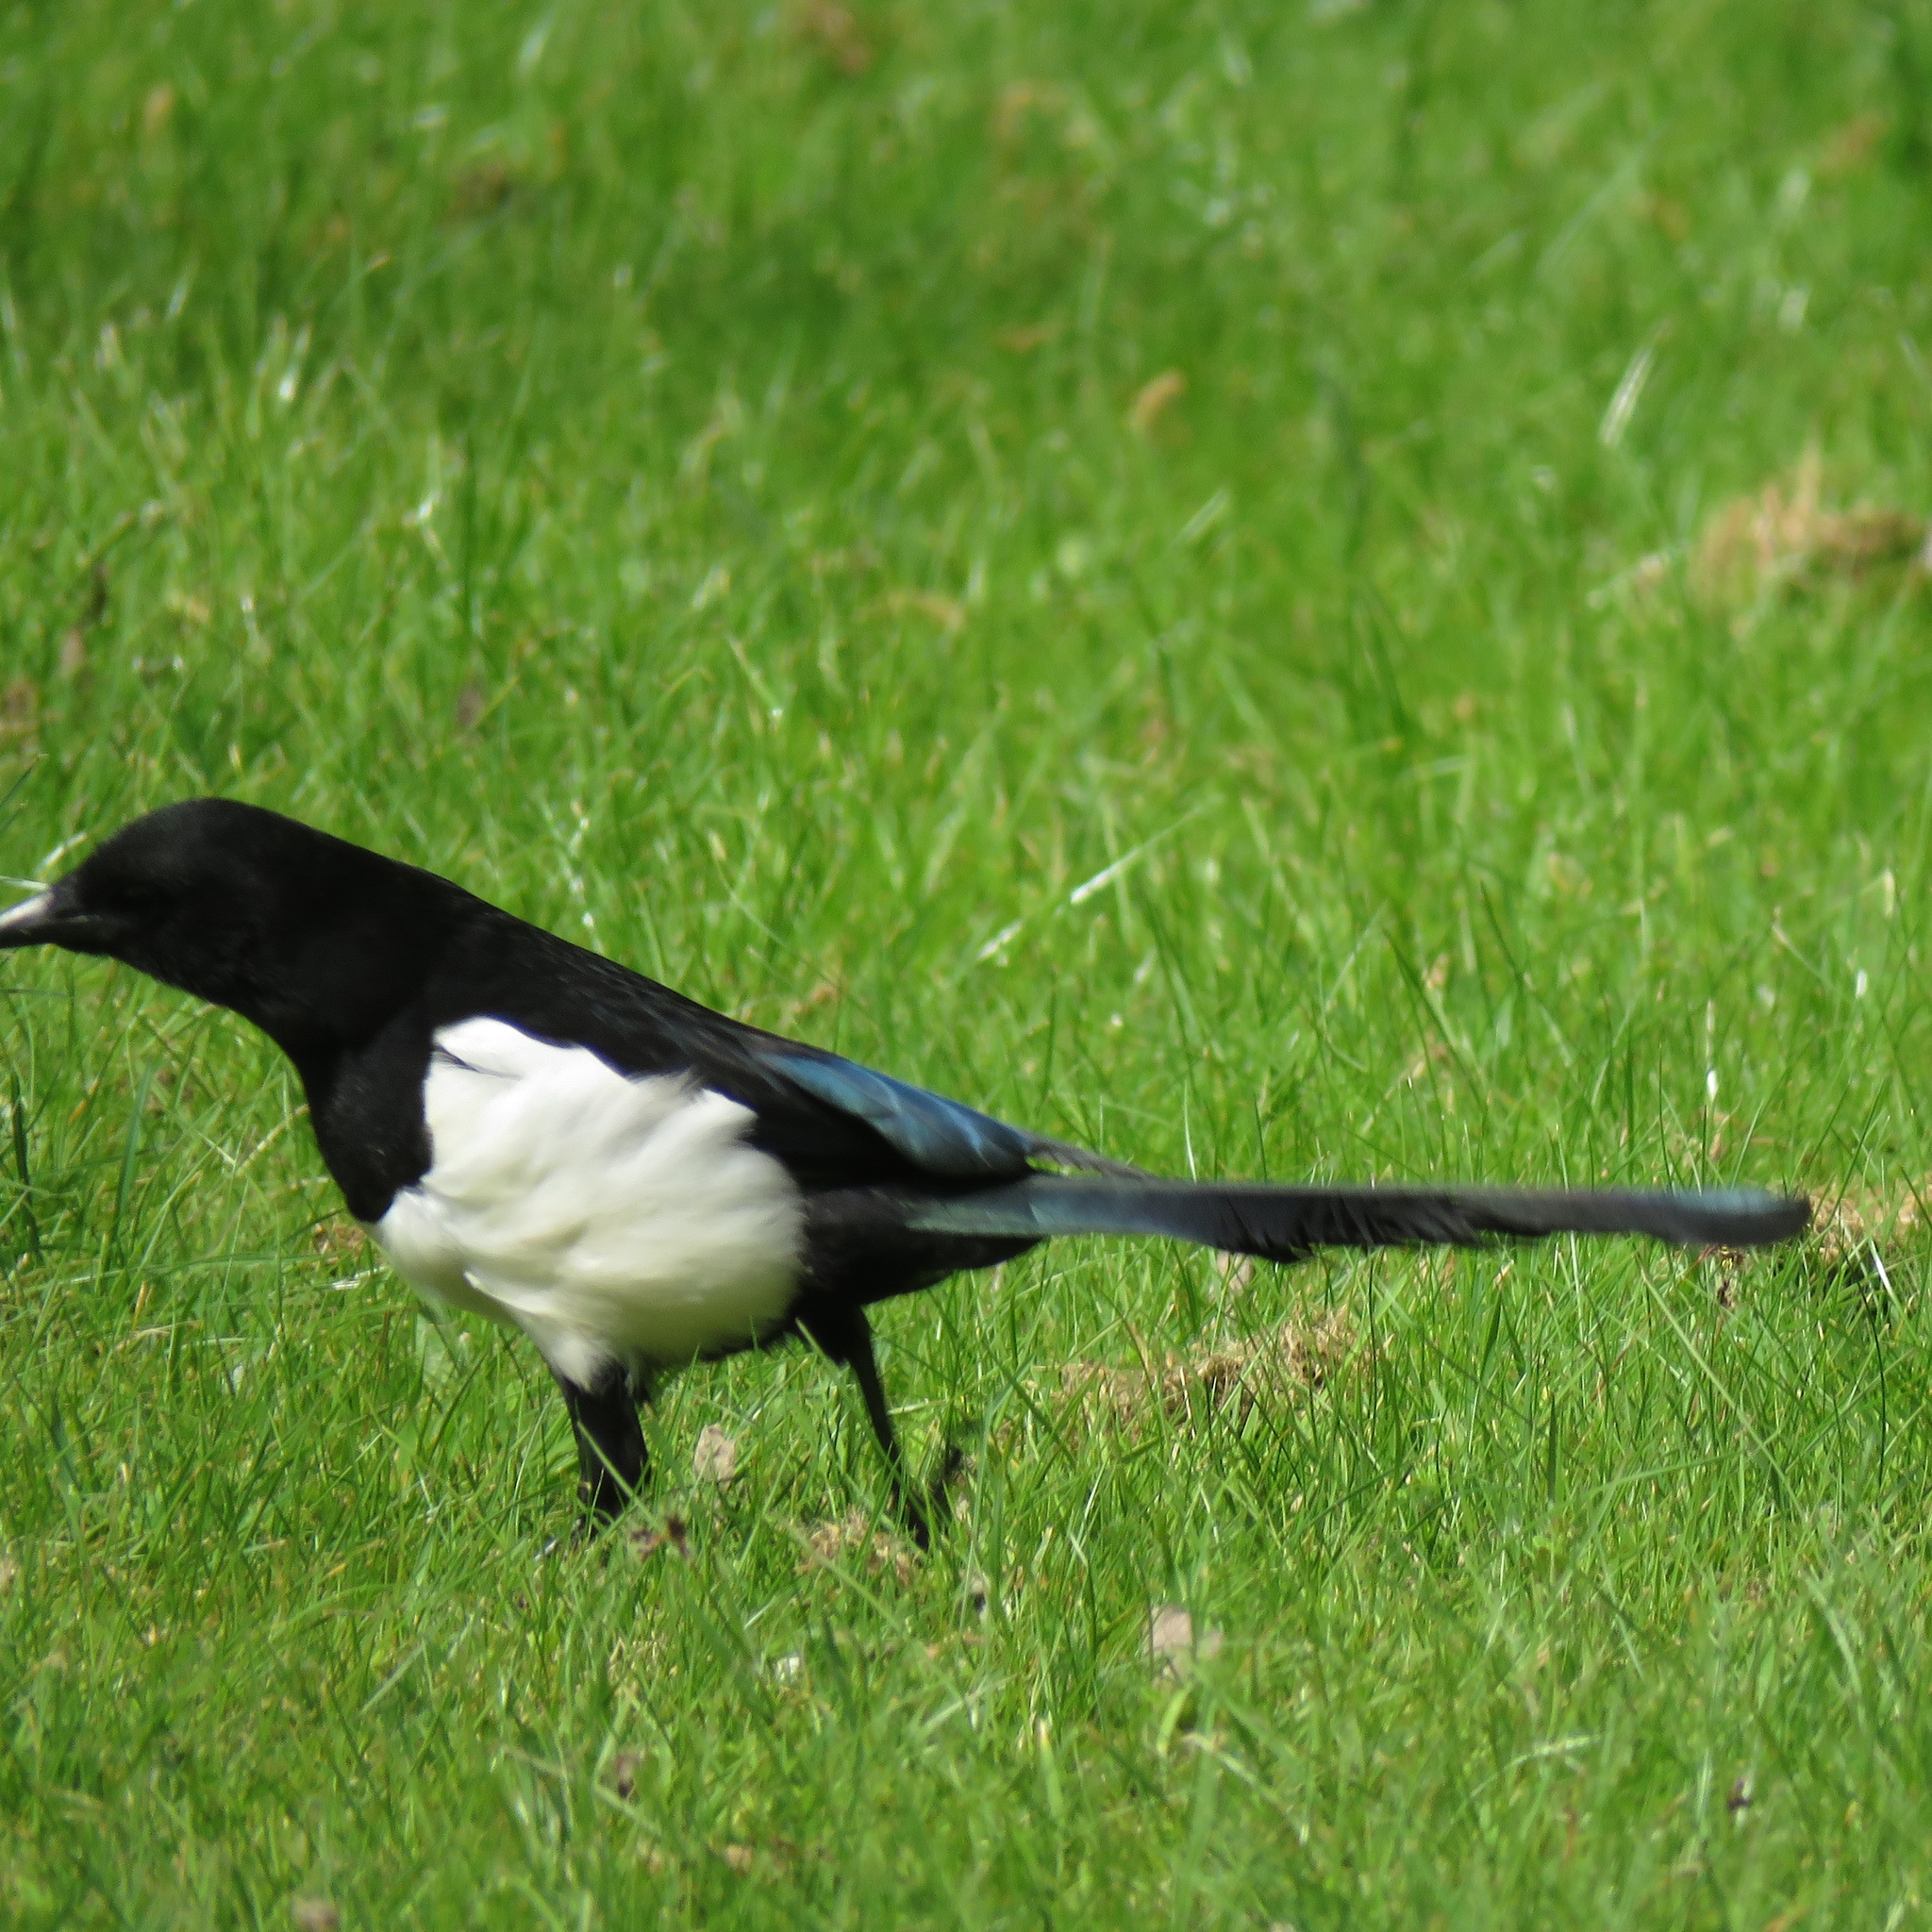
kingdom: Animalia
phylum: Chordata
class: Aves
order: Passeriformes
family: Corvidae
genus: Pica
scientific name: Pica pica
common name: Eurasian magpie
